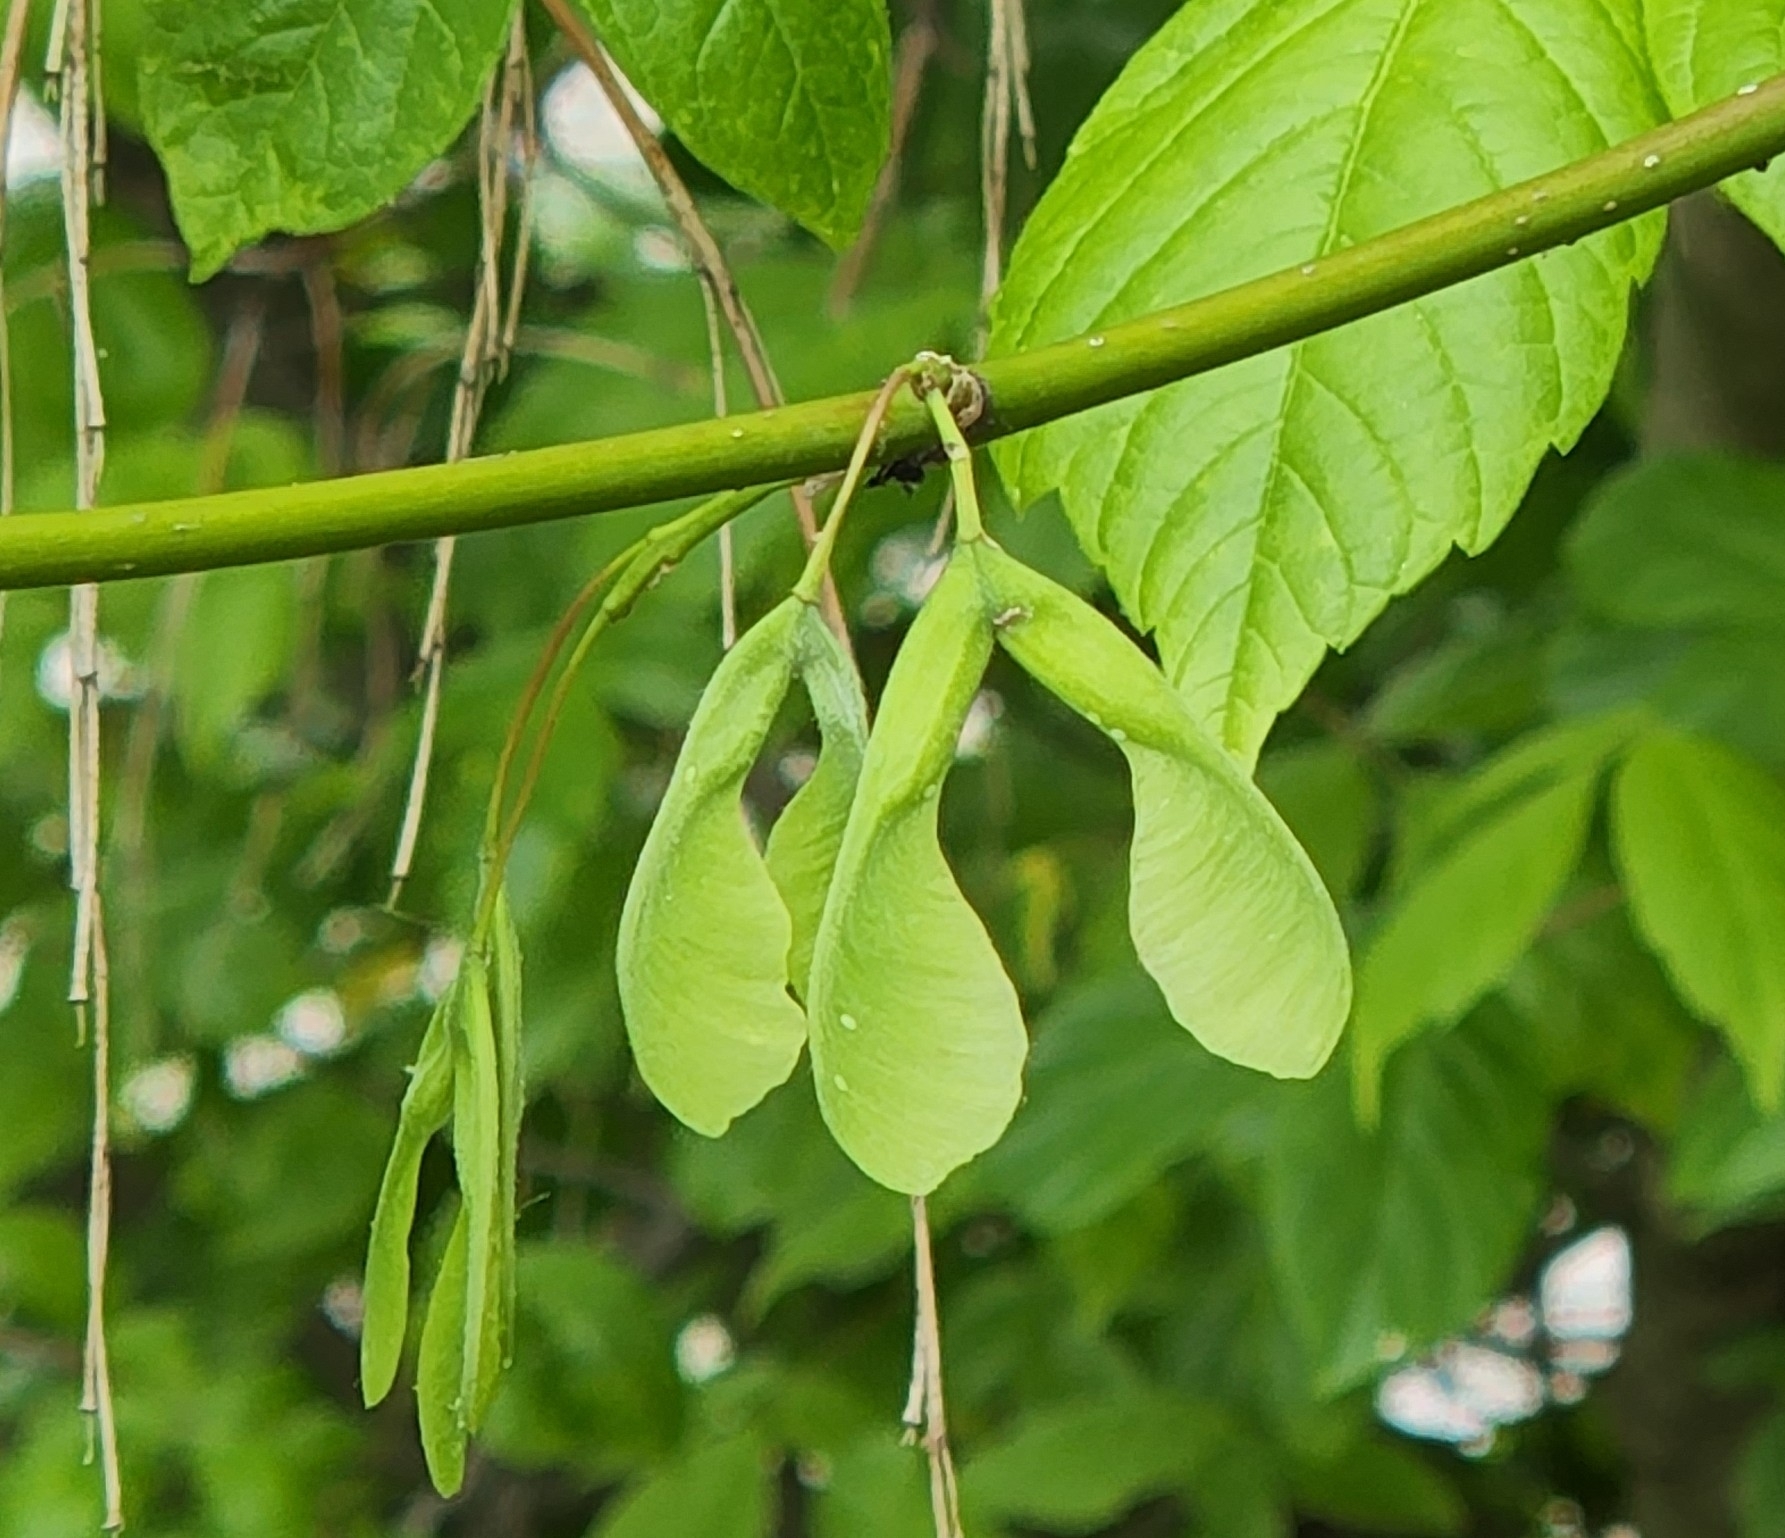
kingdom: Plantae
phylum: Tracheophyta
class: Magnoliopsida
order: Sapindales
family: Sapindaceae
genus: Acer
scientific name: Acer negundo
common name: Ashleaf maple
